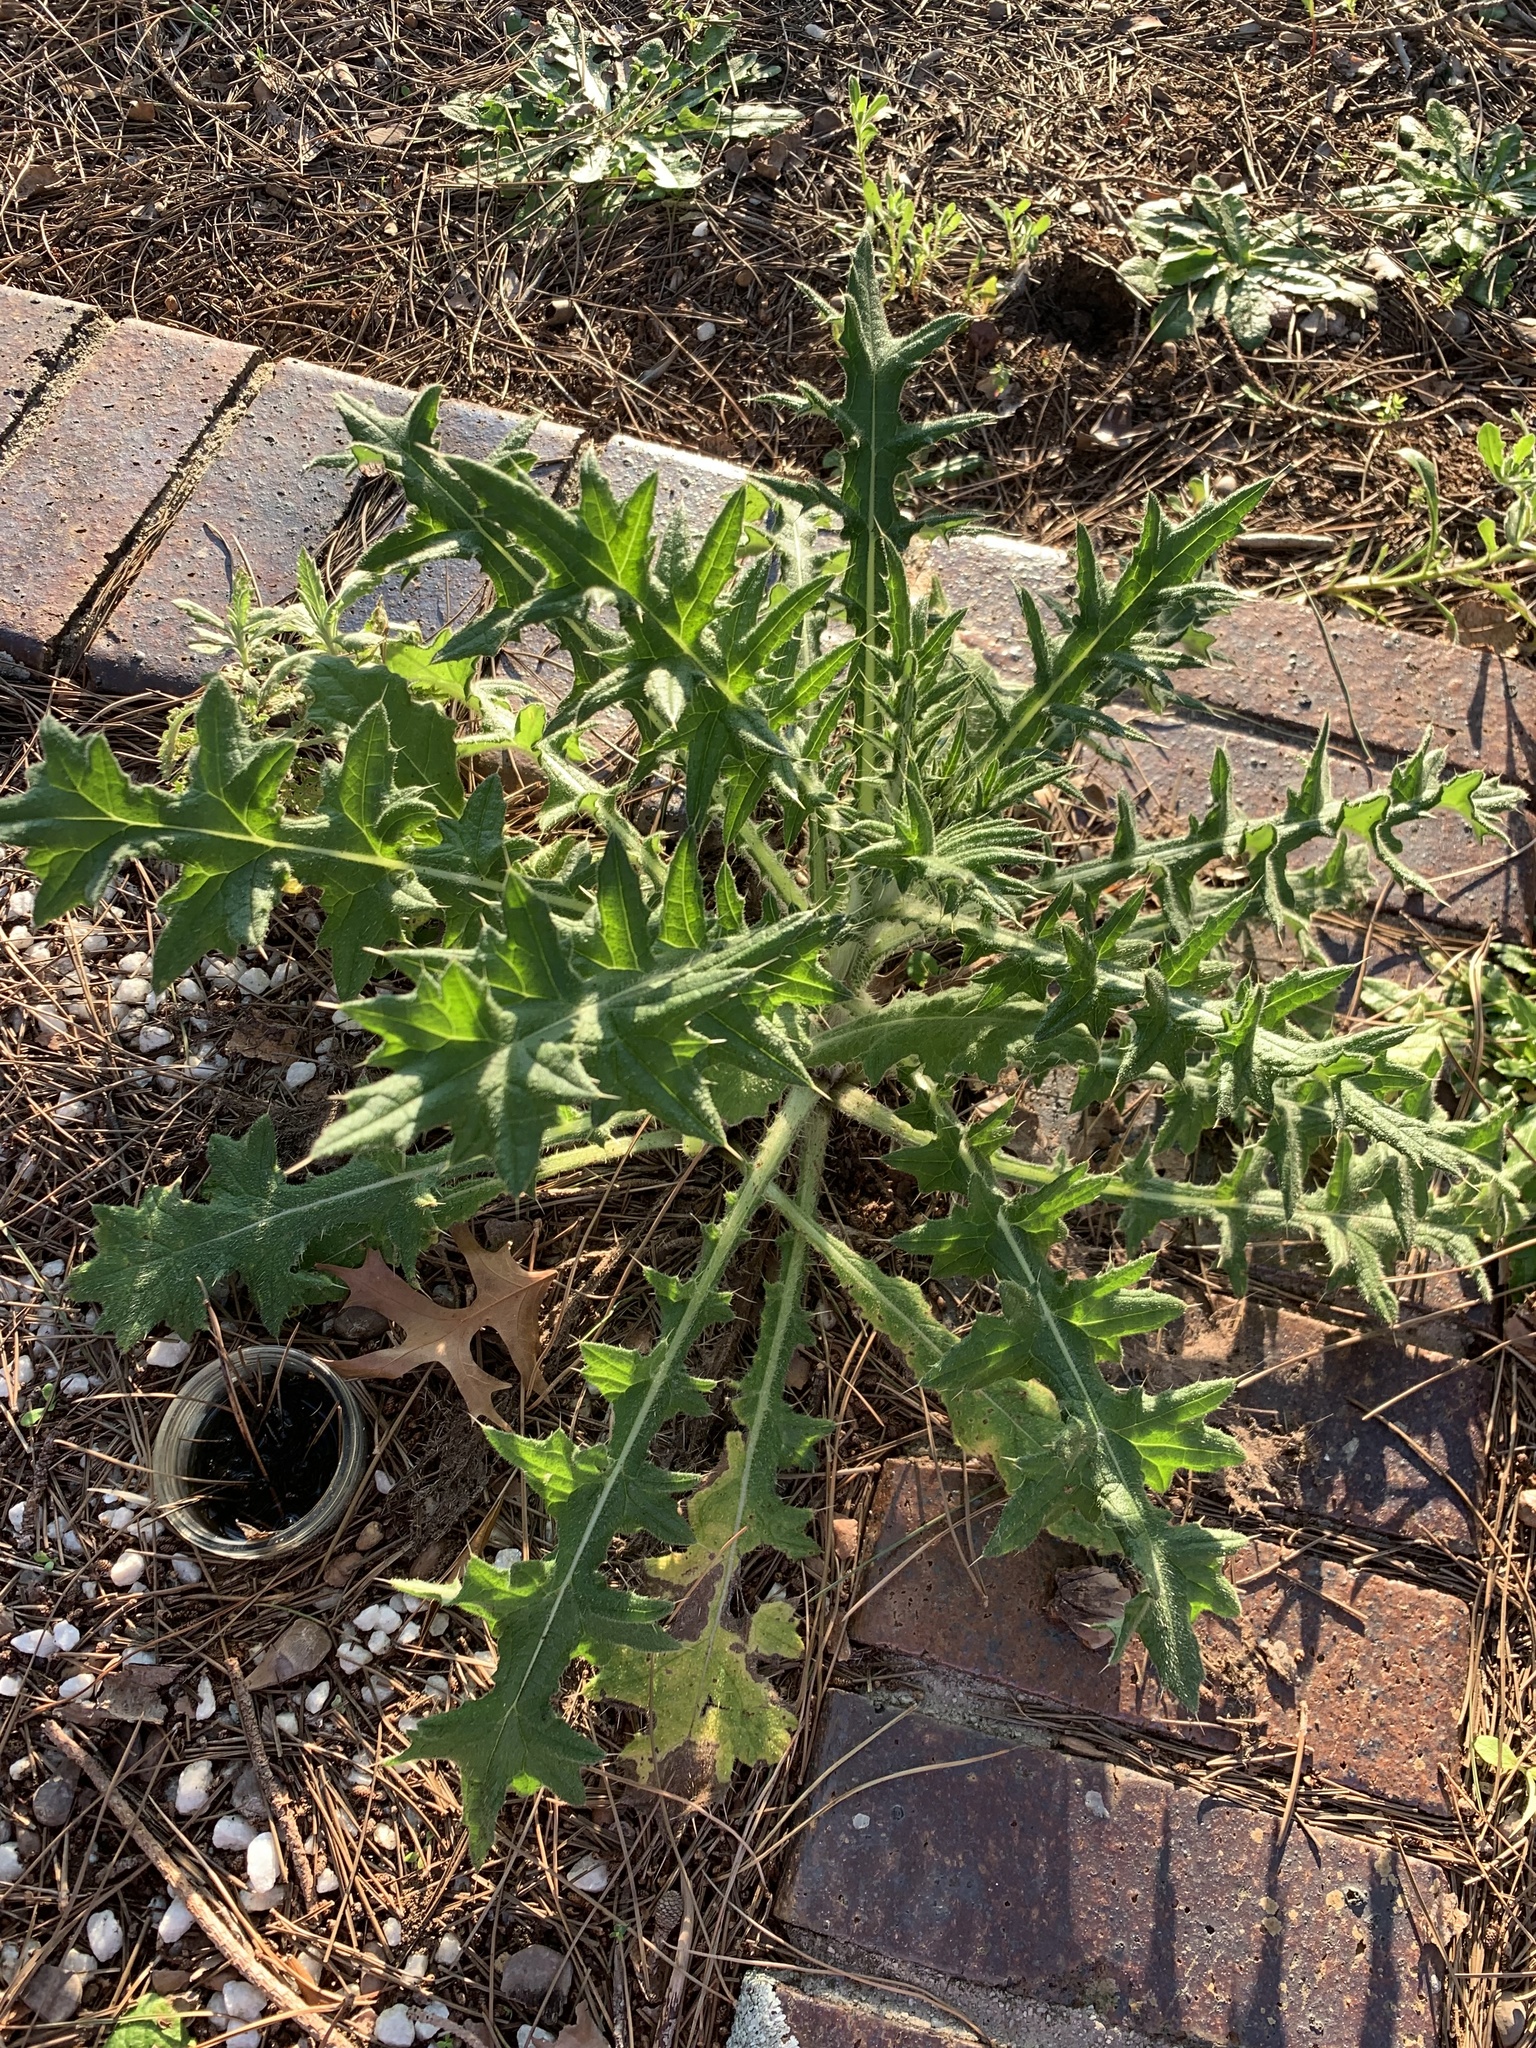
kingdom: Plantae
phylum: Tracheophyta
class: Magnoliopsida
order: Asterales
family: Asteraceae
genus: Cirsium
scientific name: Cirsium vulgare
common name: Bull thistle
